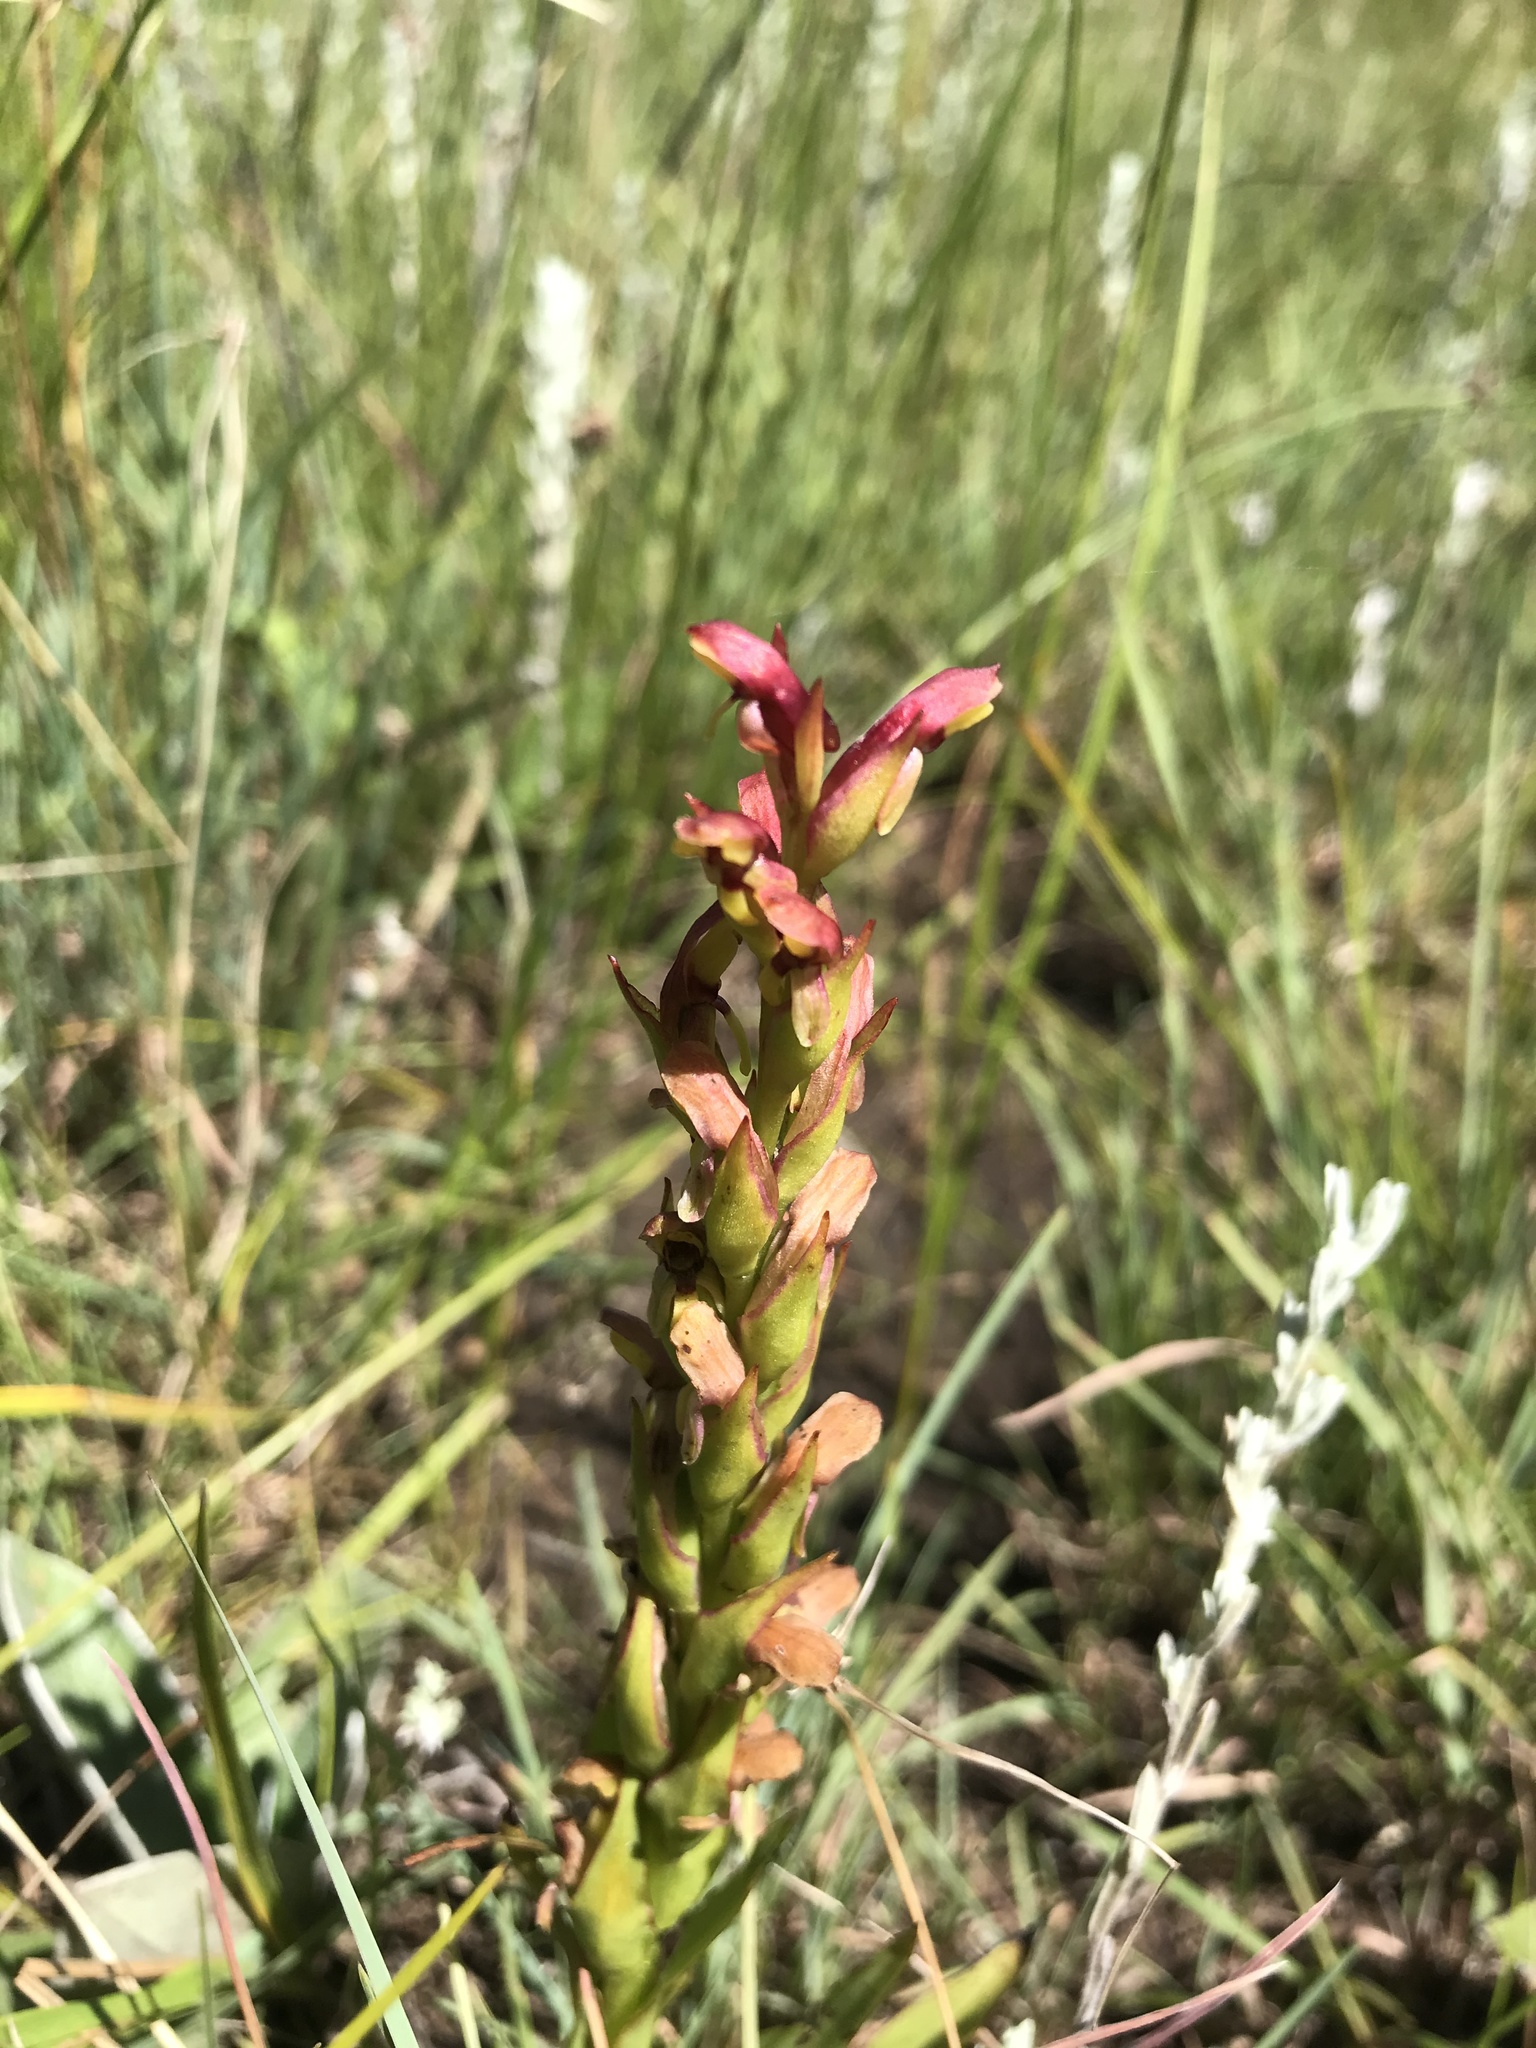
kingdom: Plantae
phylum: Tracheophyta
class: Liliopsida
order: Asparagales
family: Orchidaceae
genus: Disa
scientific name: Disa brevicornis
